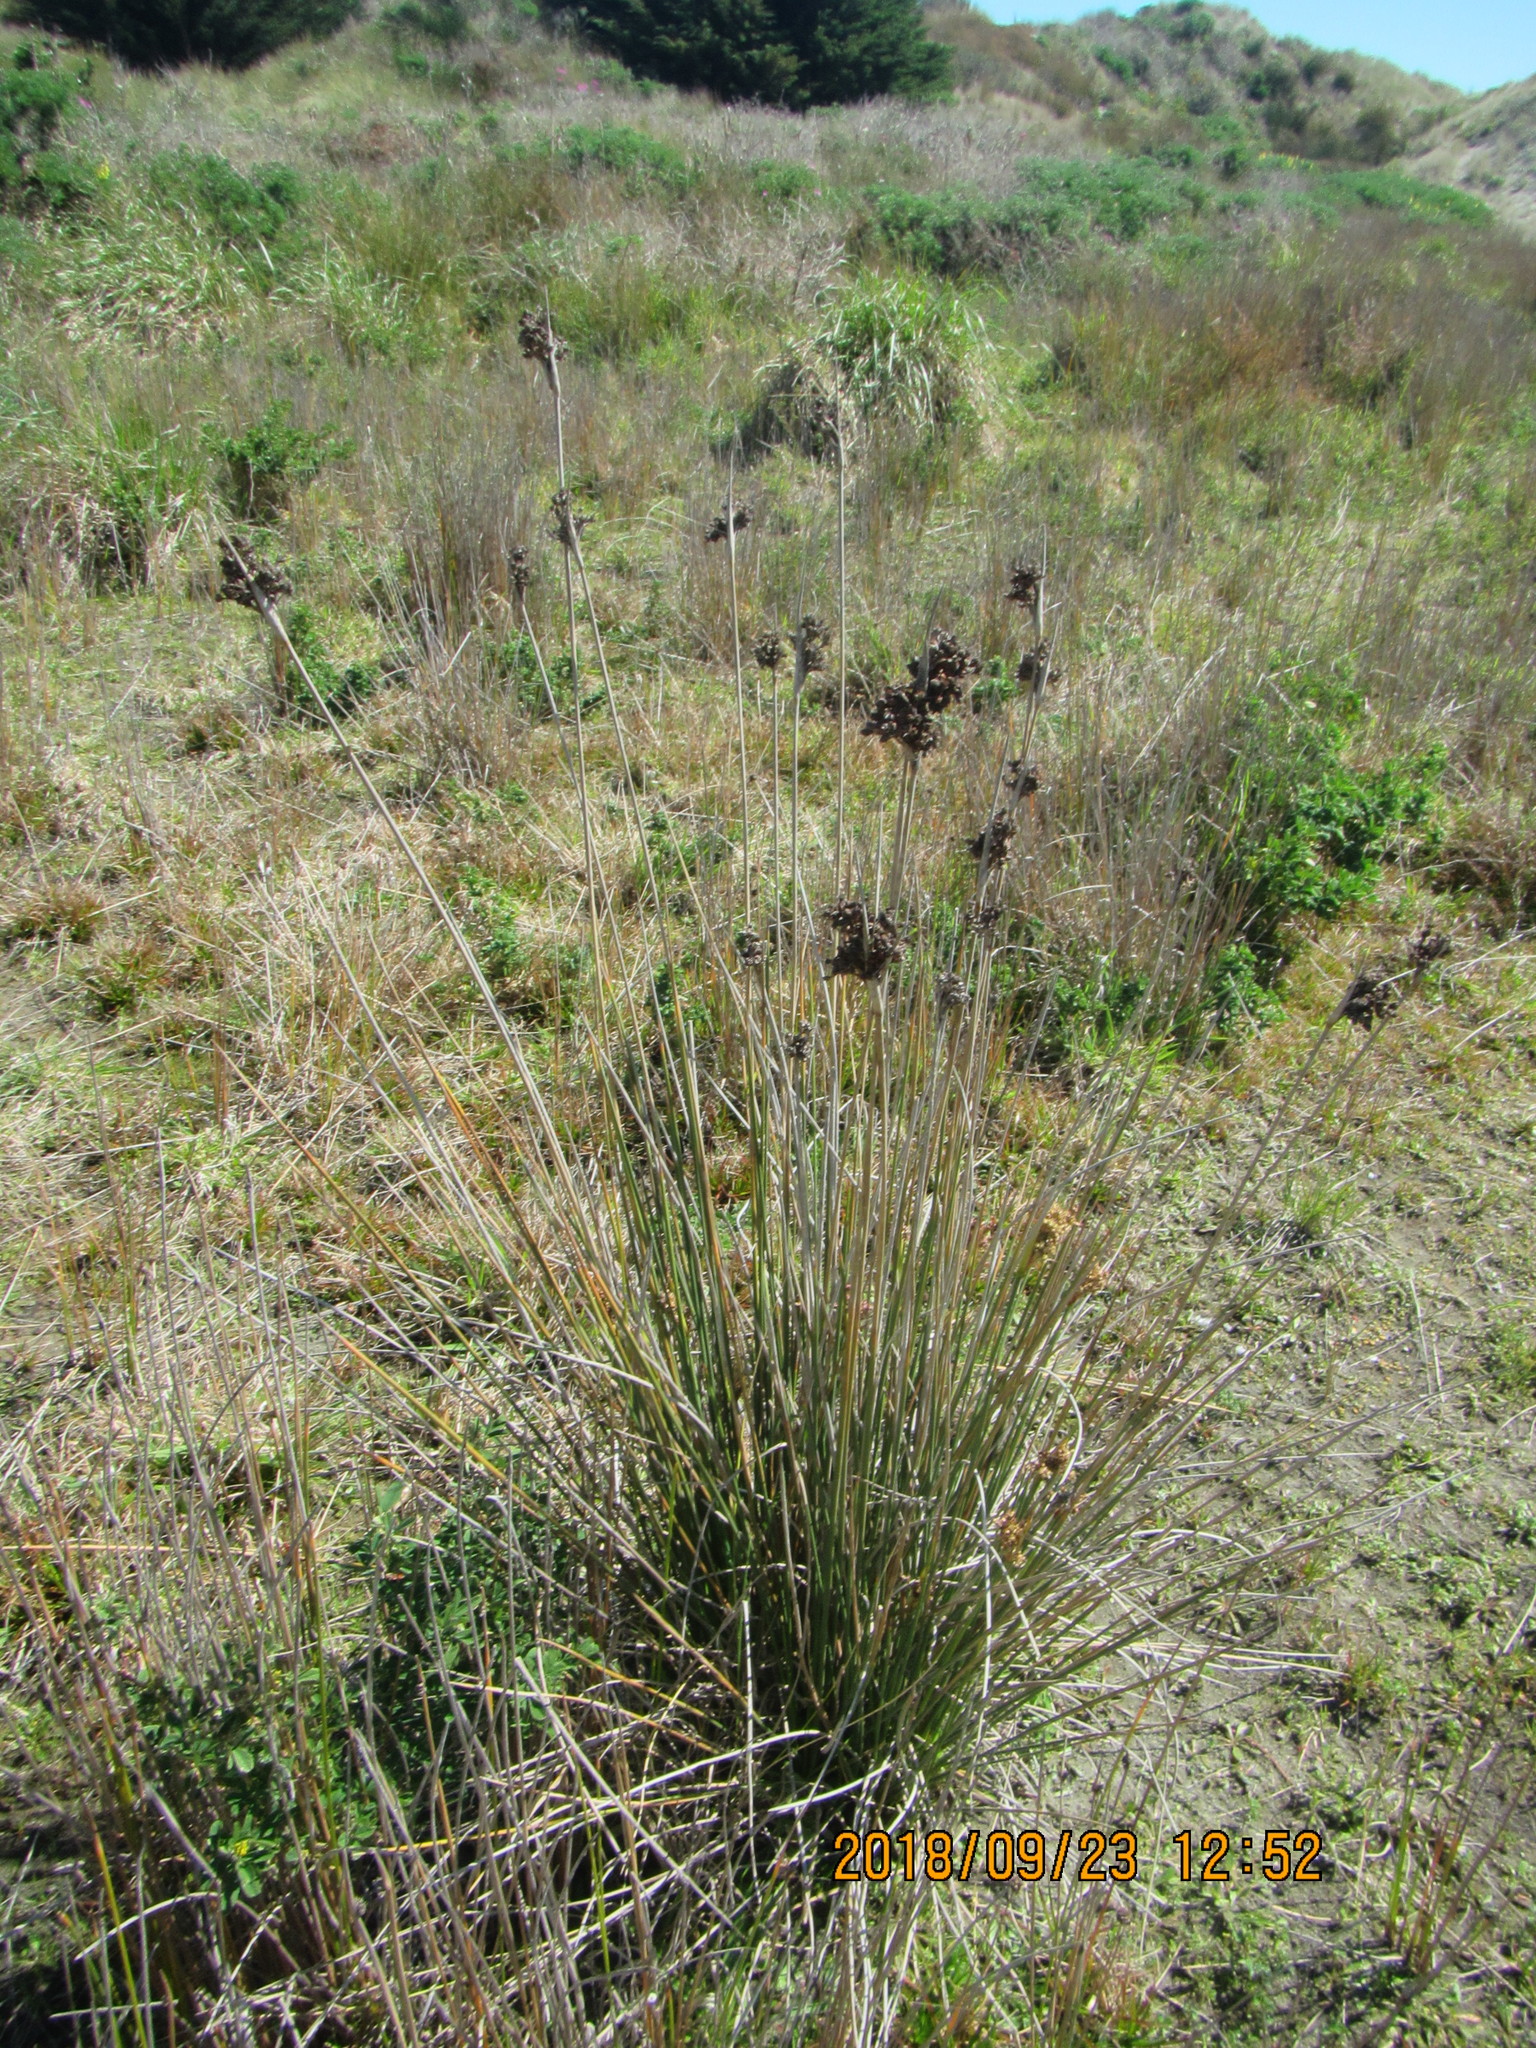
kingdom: Plantae
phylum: Tracheophyta
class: Liliopsida
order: Poales
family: Juncaceae
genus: Juncus
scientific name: Juncus acutus
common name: Sharp rush
